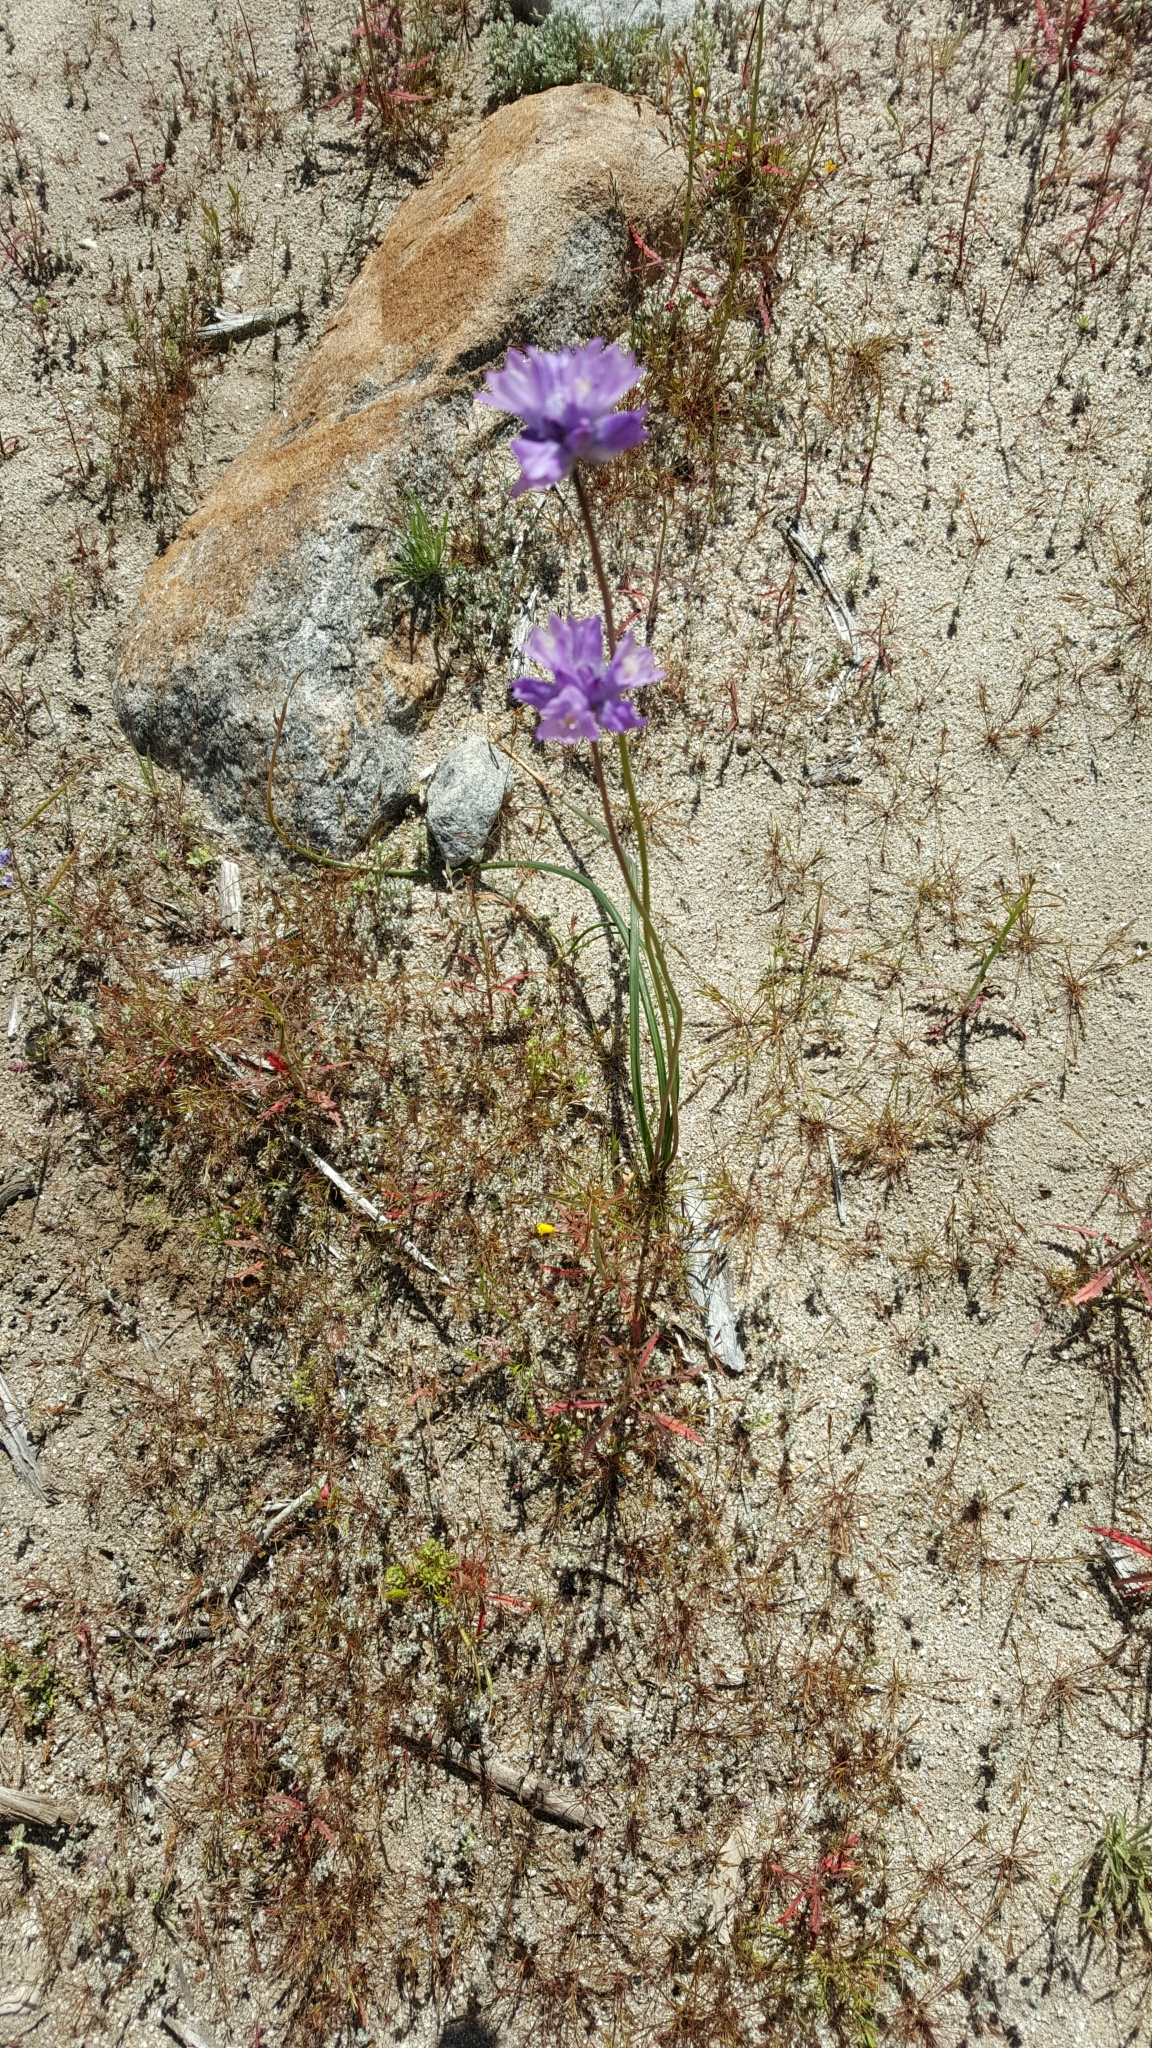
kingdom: Plantae
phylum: Tracheophyta
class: Liliopsida
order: Asparagales
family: Asparagaceae
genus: Dipterostemon
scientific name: Dipterostemon capitatus
